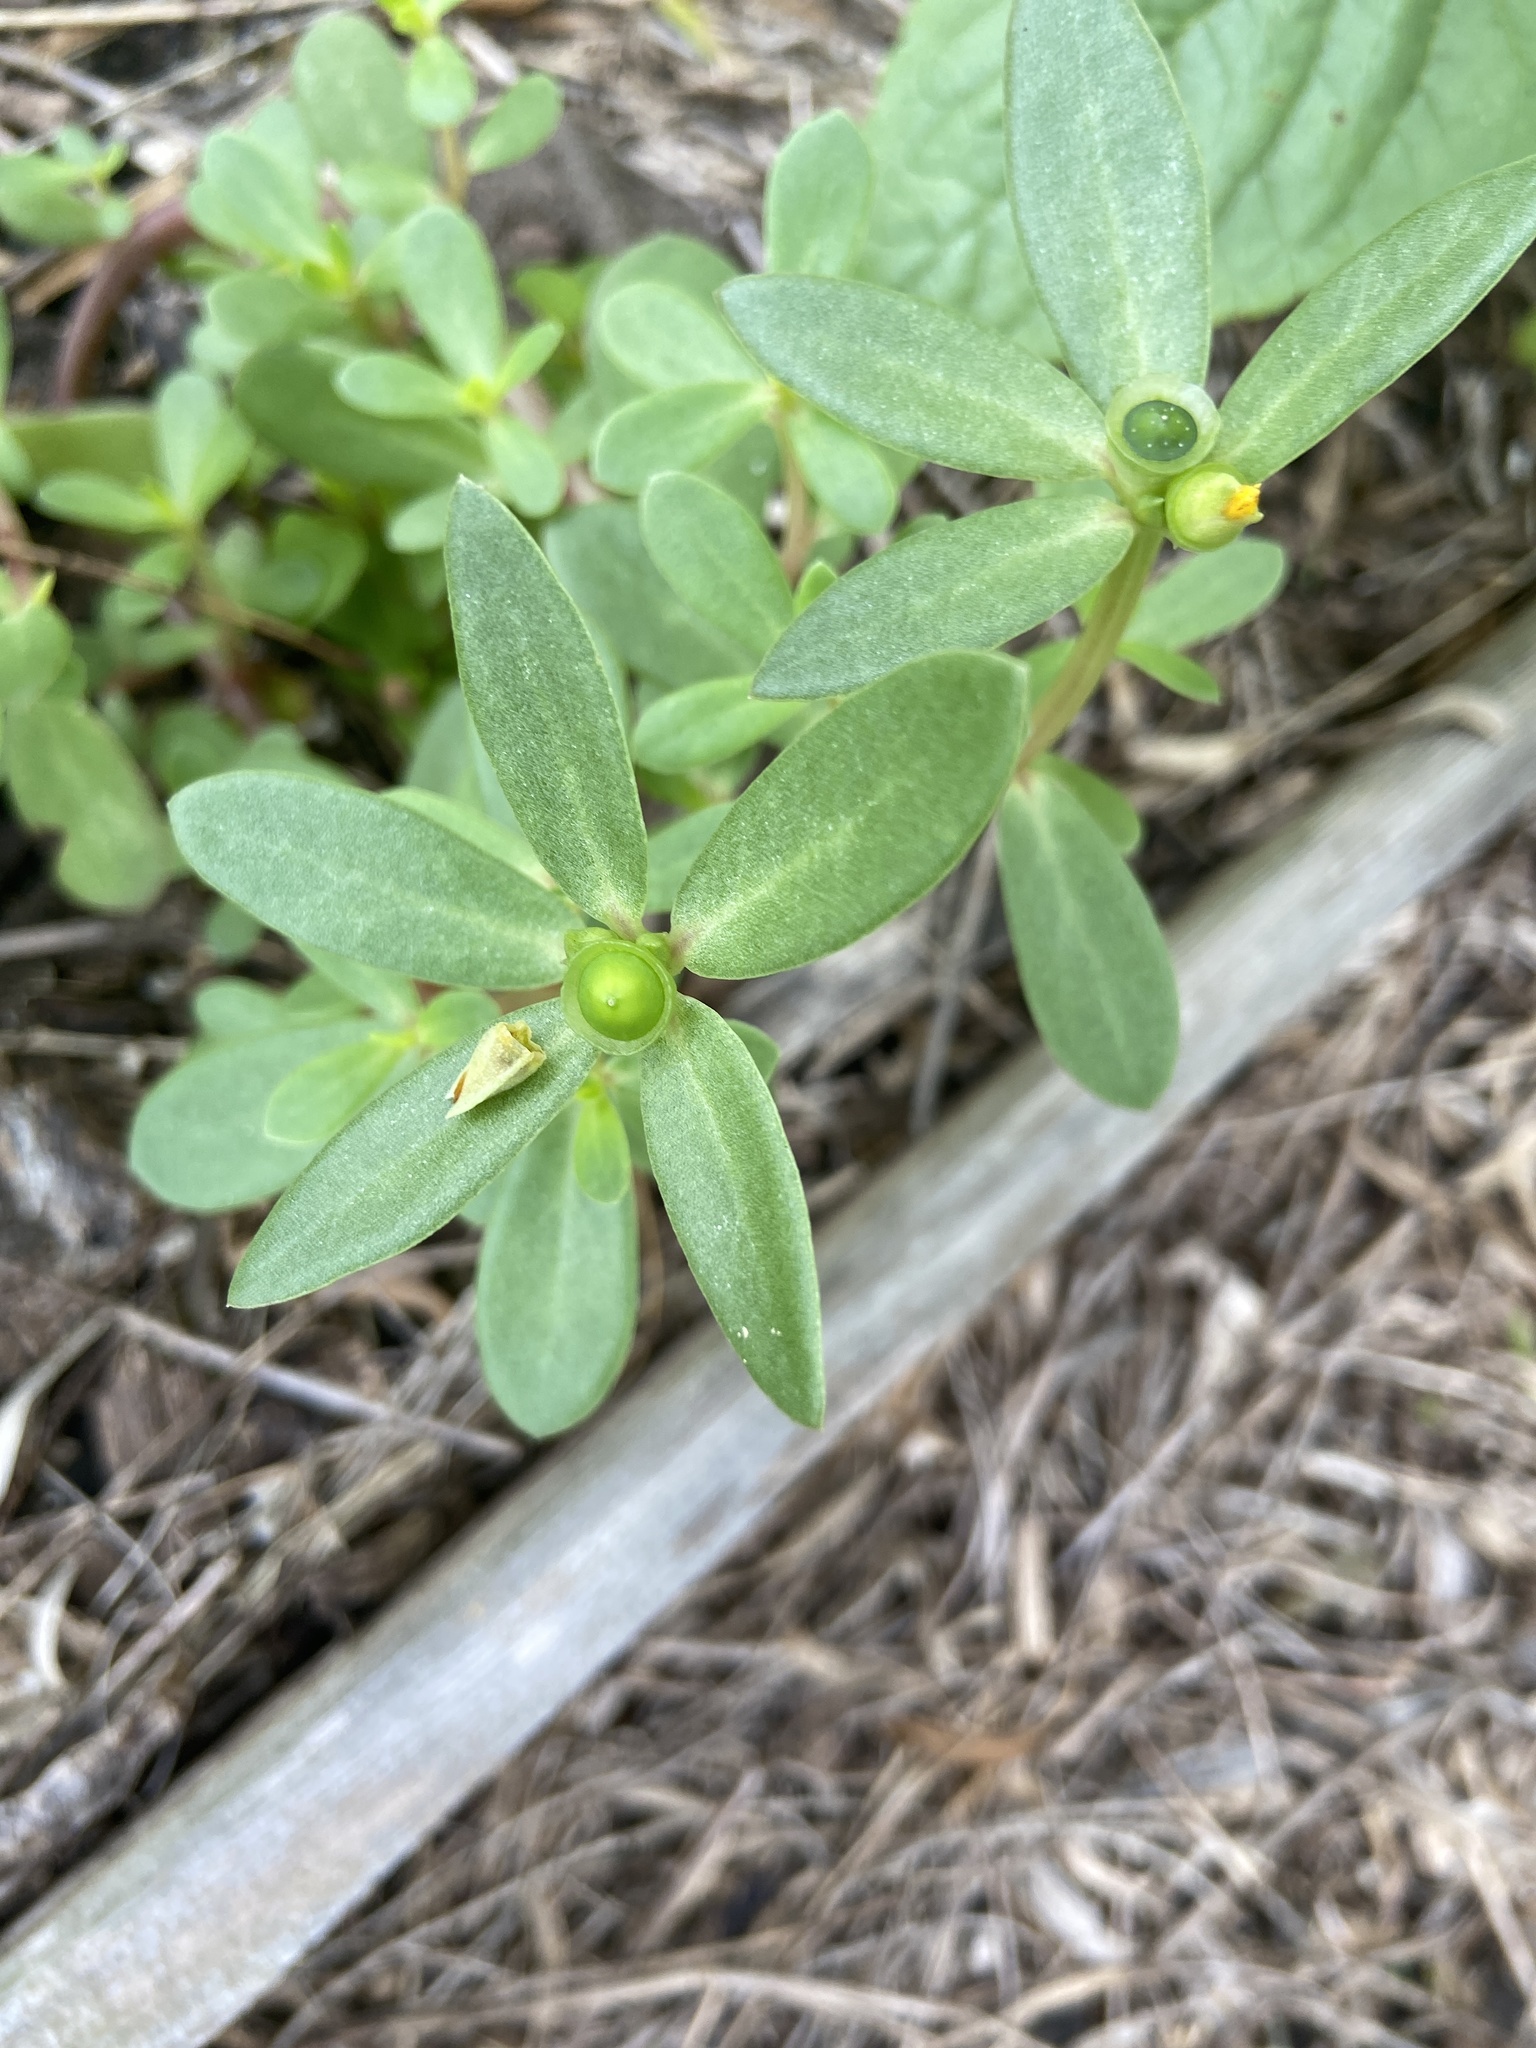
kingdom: Plantae
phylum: Tracheophyta
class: Magnoliopsida
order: Caryophyllales
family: Portulacaceae
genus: Portulaca
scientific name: Portulaca umbraticola
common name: Wingpod purslane
